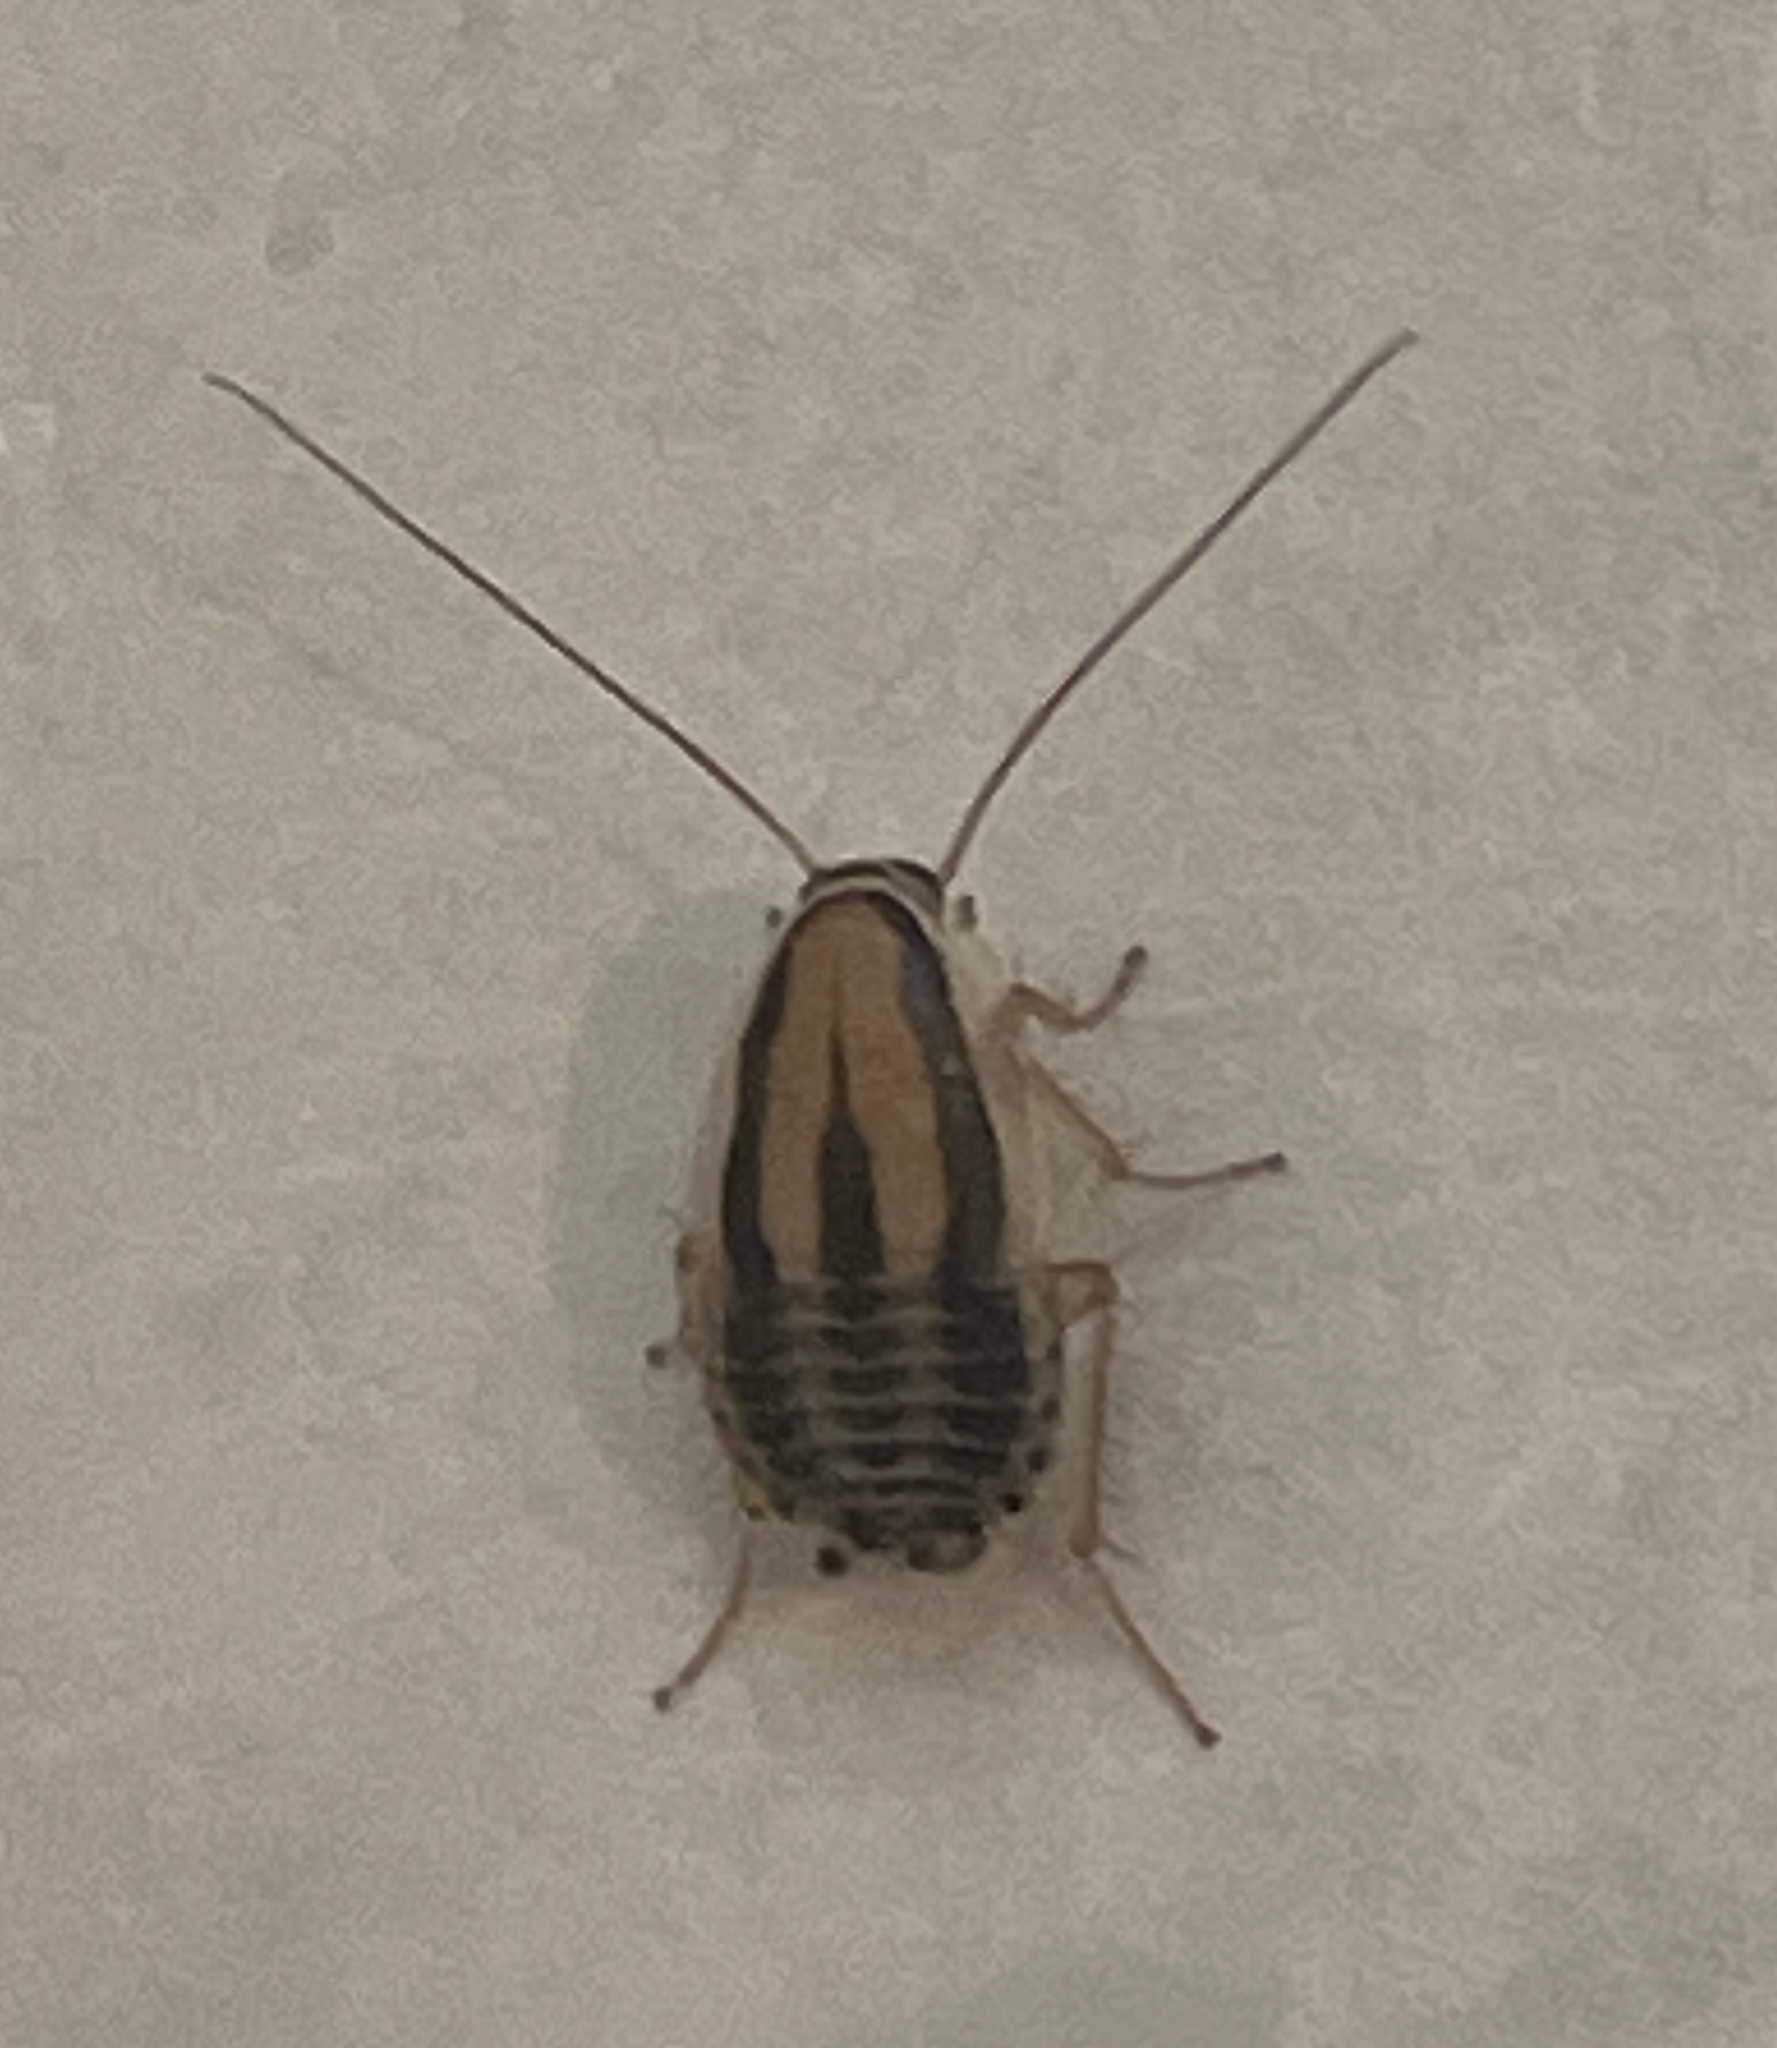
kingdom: Animalia
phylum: Arthropoda
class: Insecta
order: Blattodea
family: Ectobiidae
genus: Luridiblatta
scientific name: Luridiblatta trivittata
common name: Three-lined cockroach
